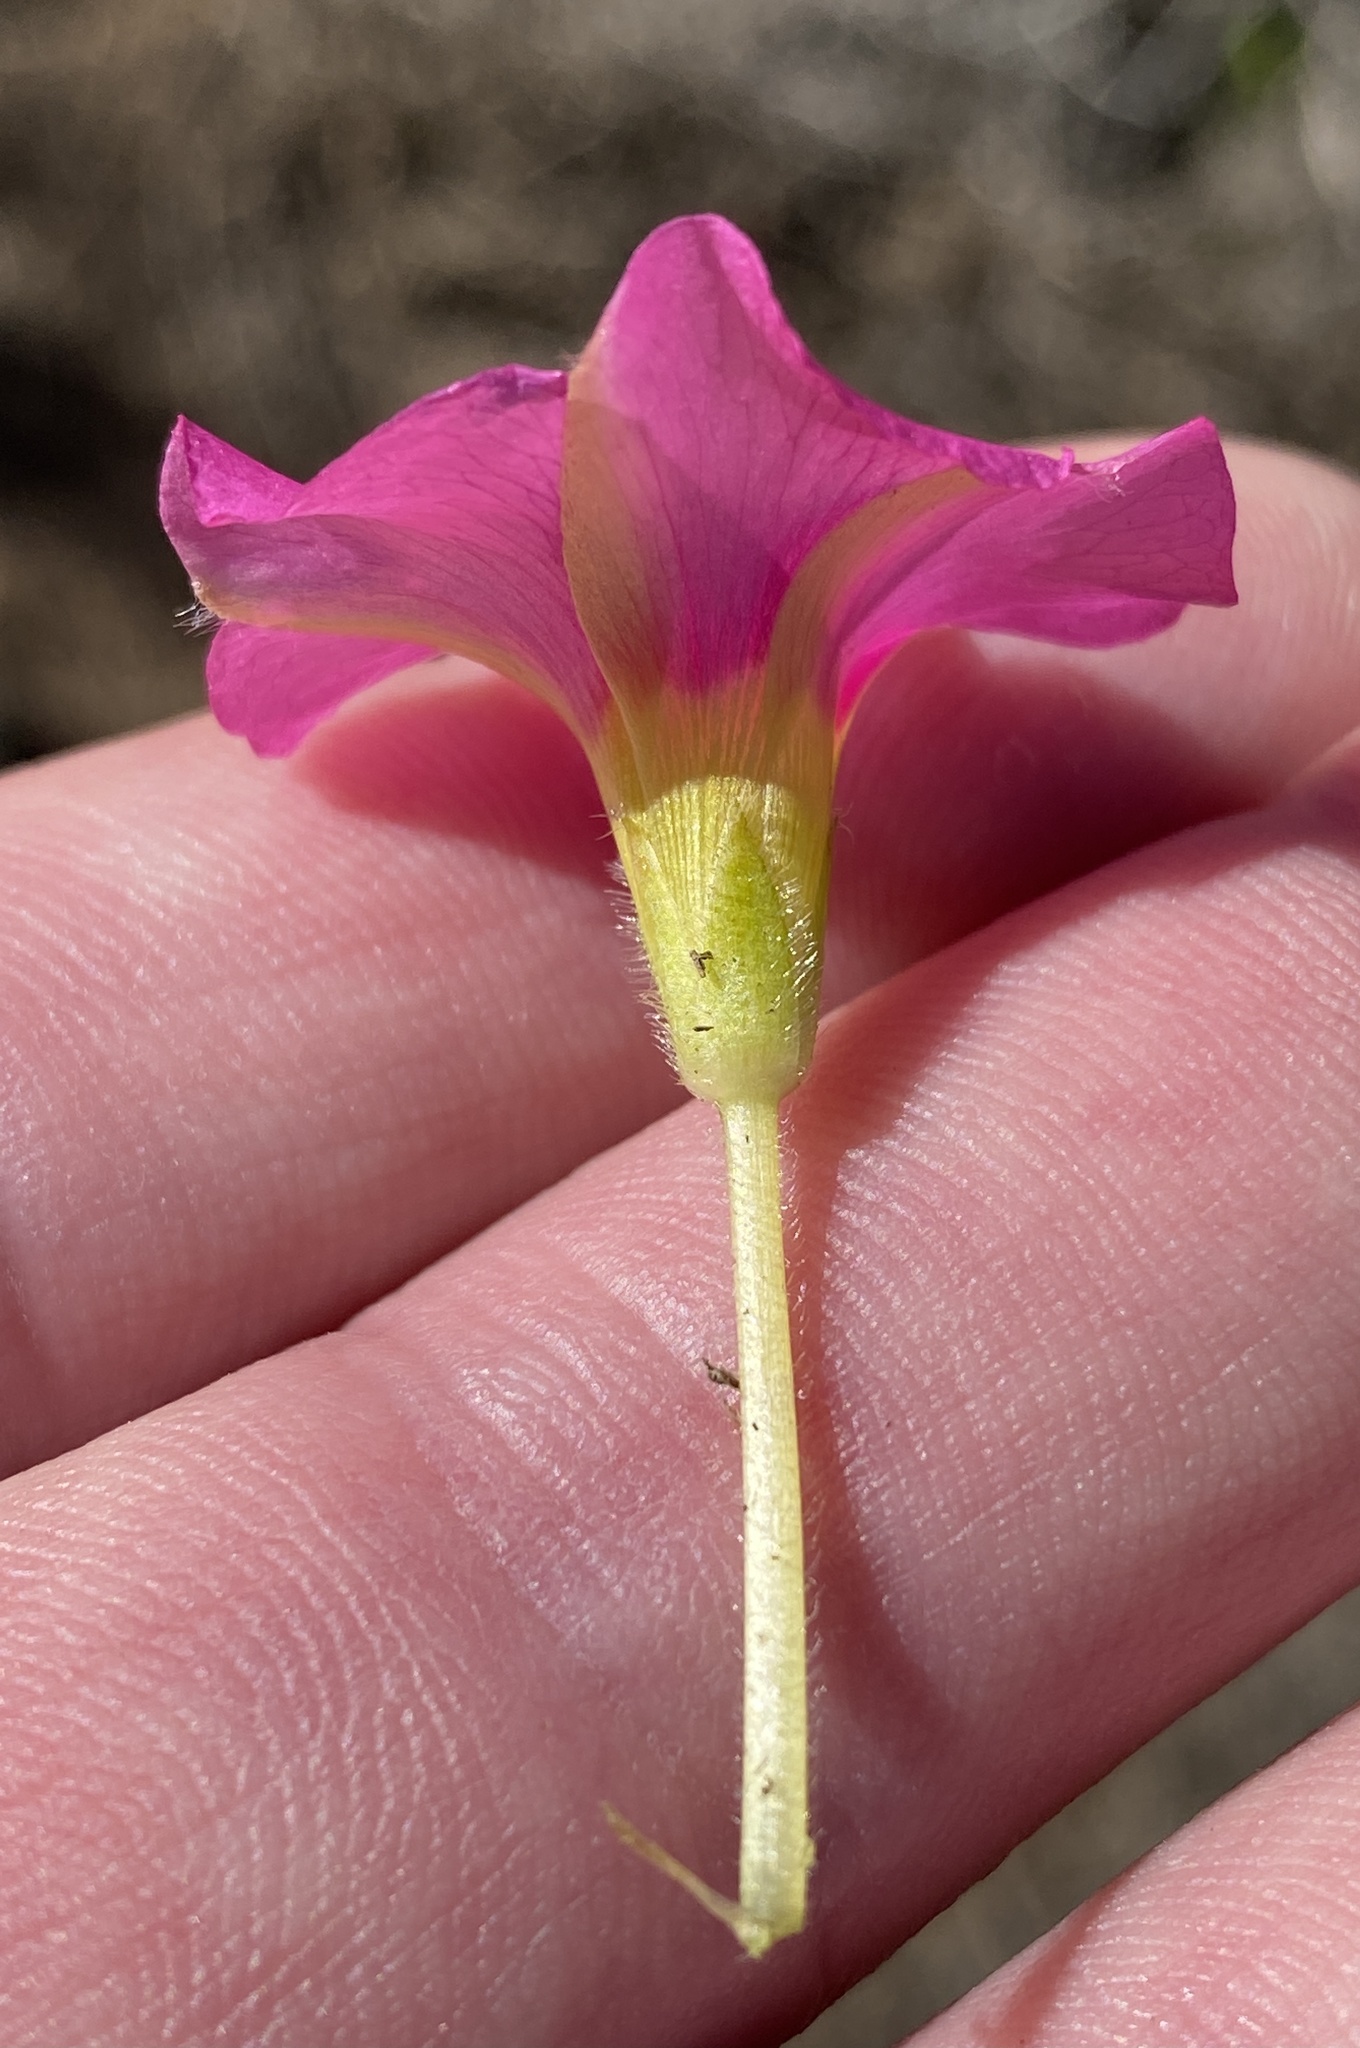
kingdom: Plantae
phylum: Tracheophyta
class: Magnoliopsida
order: Oxalidales
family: Oxalidaceae
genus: Oxalis
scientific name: Oxalis purpurea
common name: Purple woodsorrel
